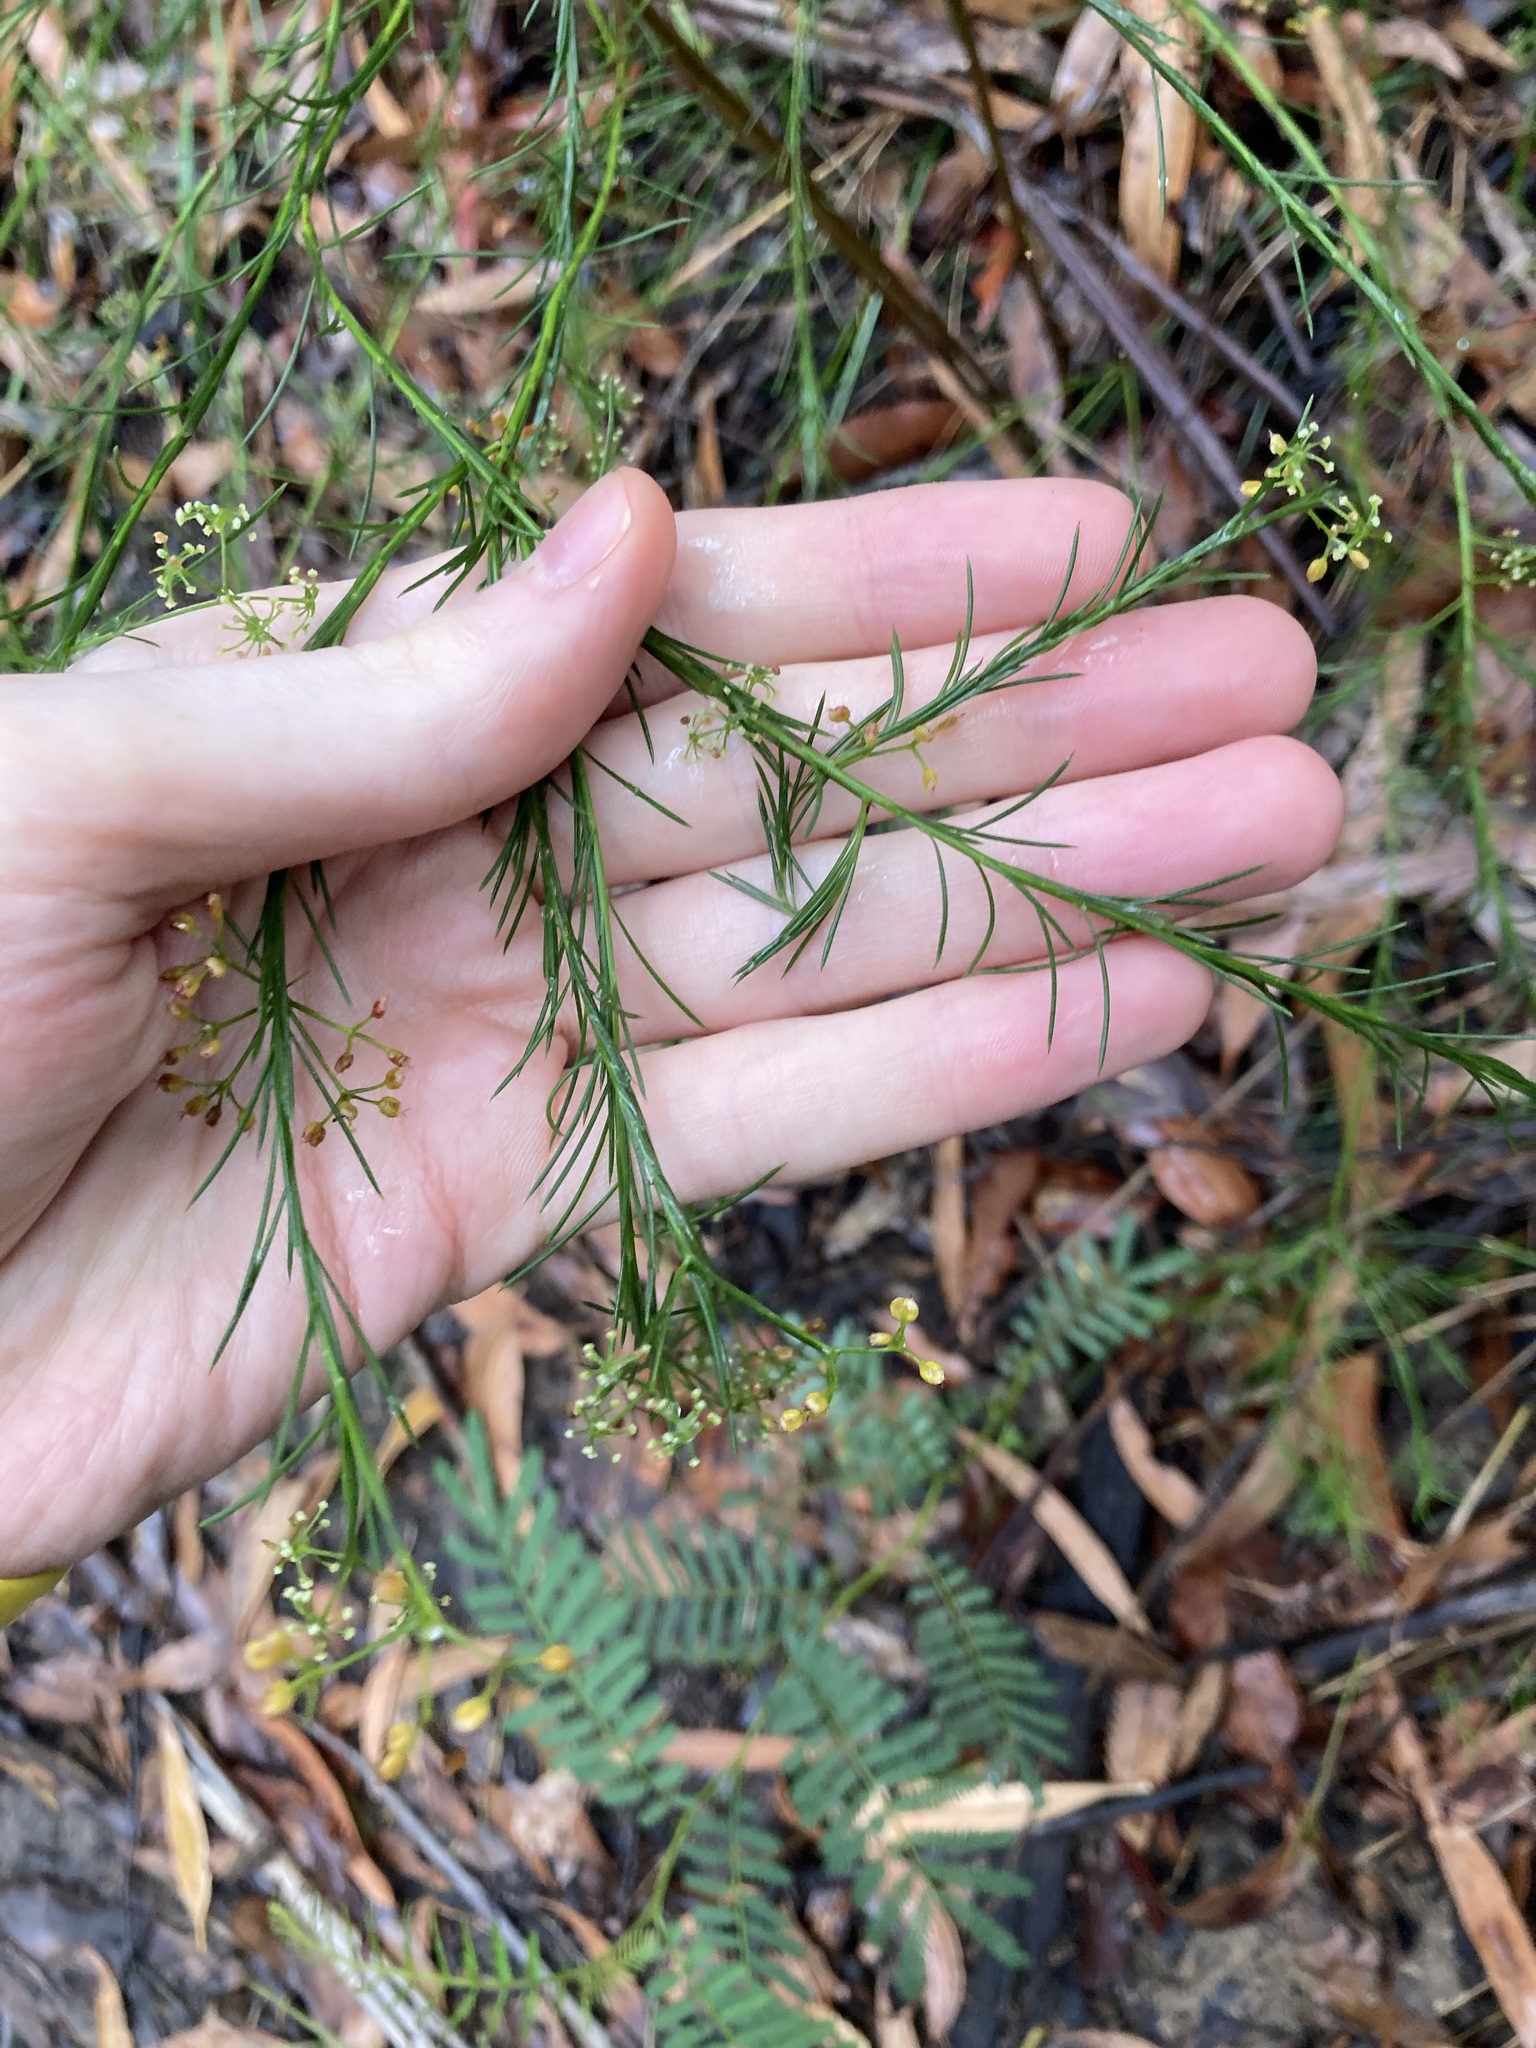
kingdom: Plantae
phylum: Tracheophyta
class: Magnoliopsida
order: Apiales
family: Apiaceae
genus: Platysace
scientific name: Platysace linearifolia
